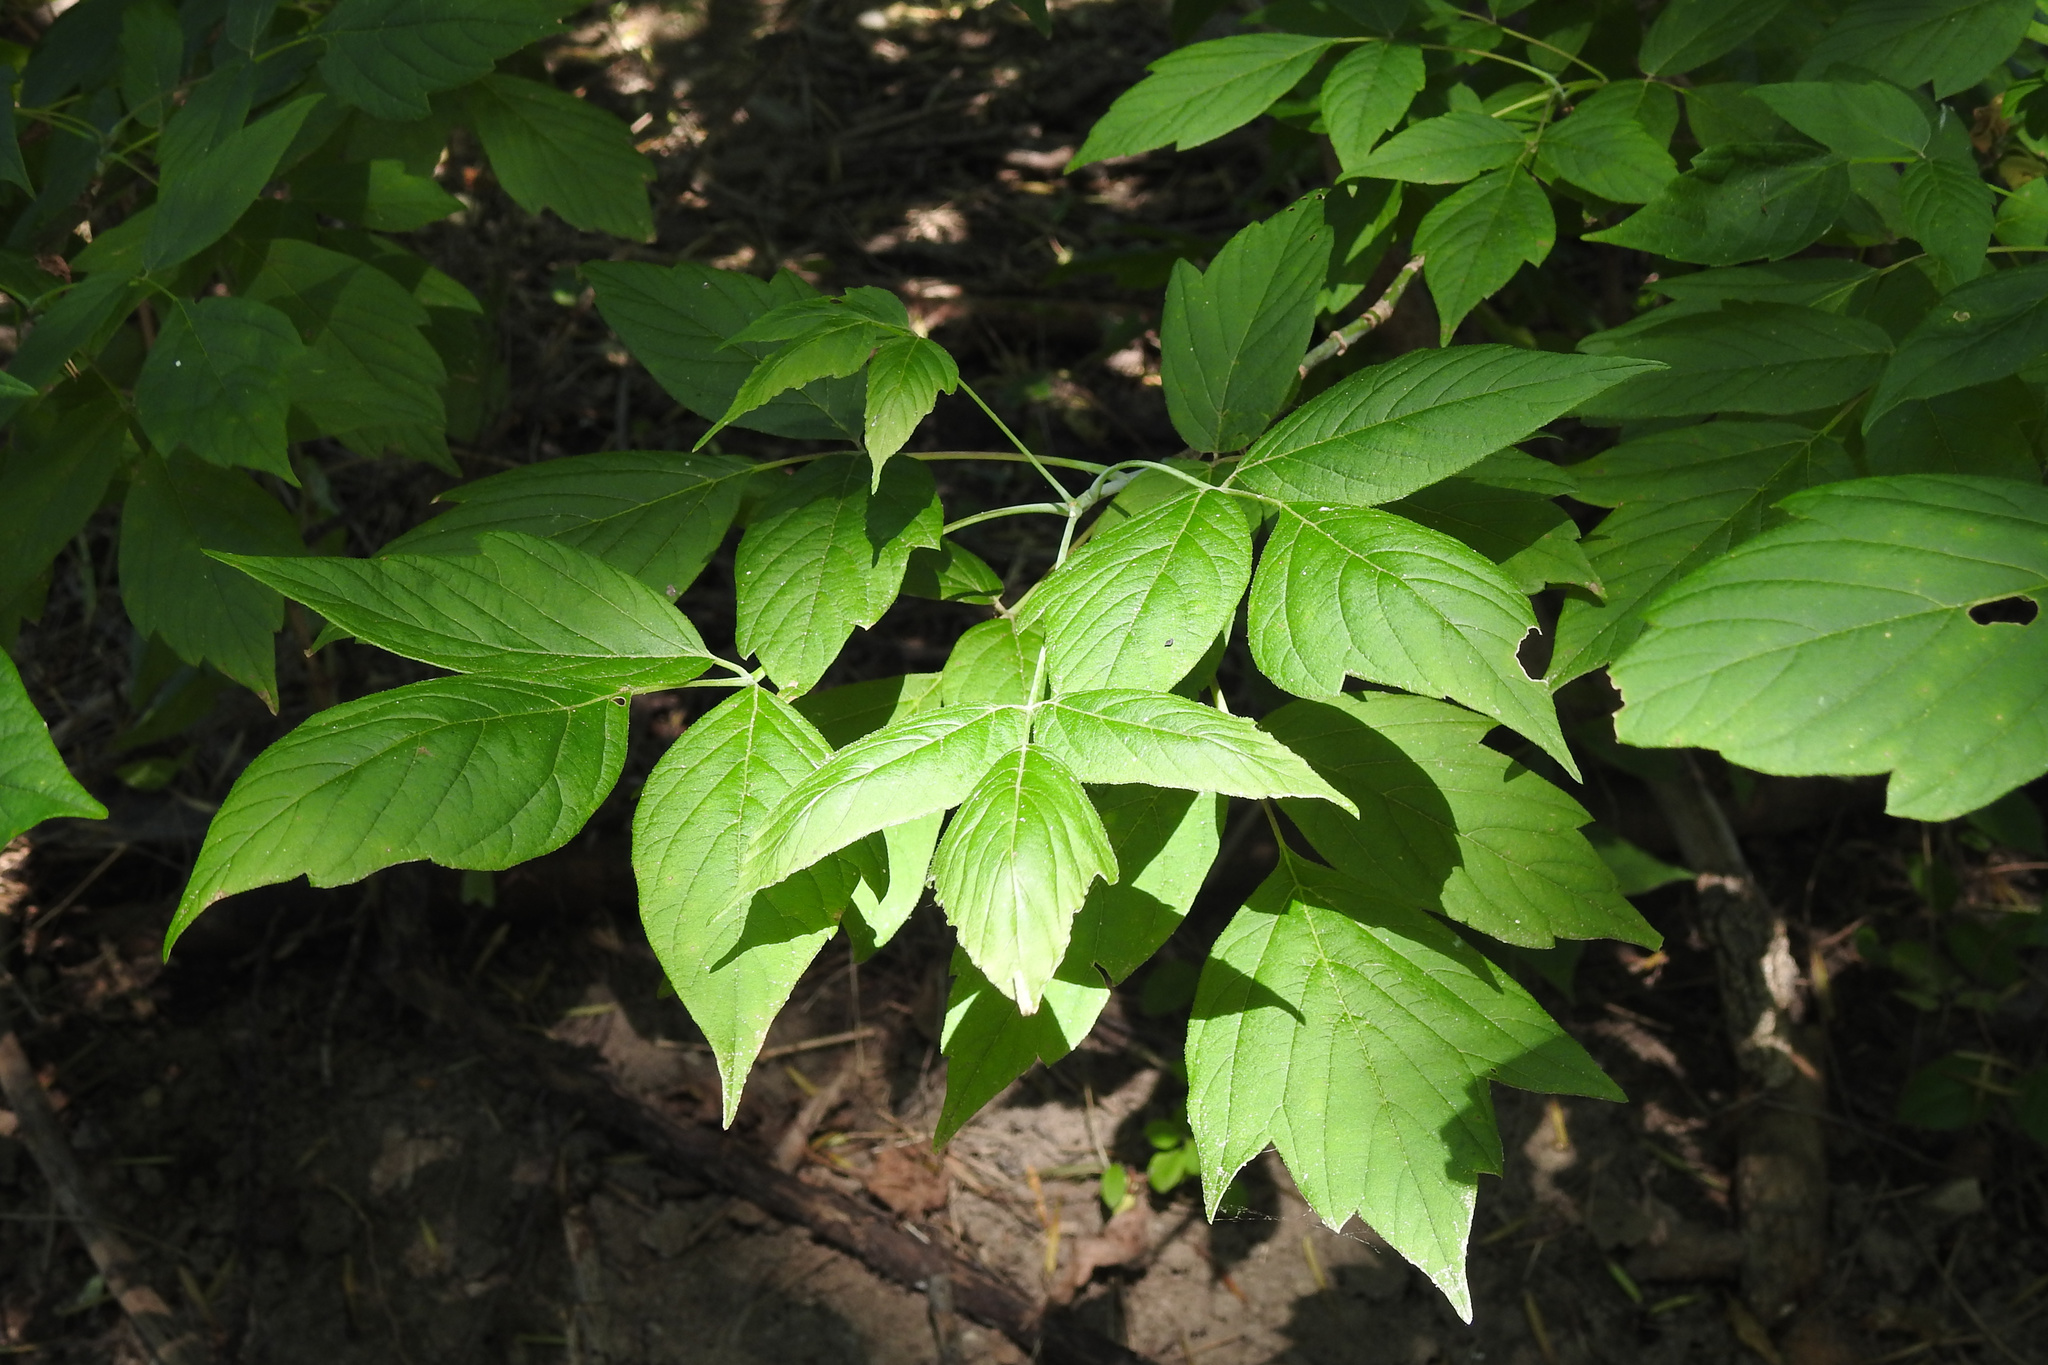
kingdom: Plantae
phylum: Tracheophyta
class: Magnoliopsida
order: Sapindales
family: Sapindaceae
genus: Acer
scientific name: Acer negundo
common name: Ashleaf maple
